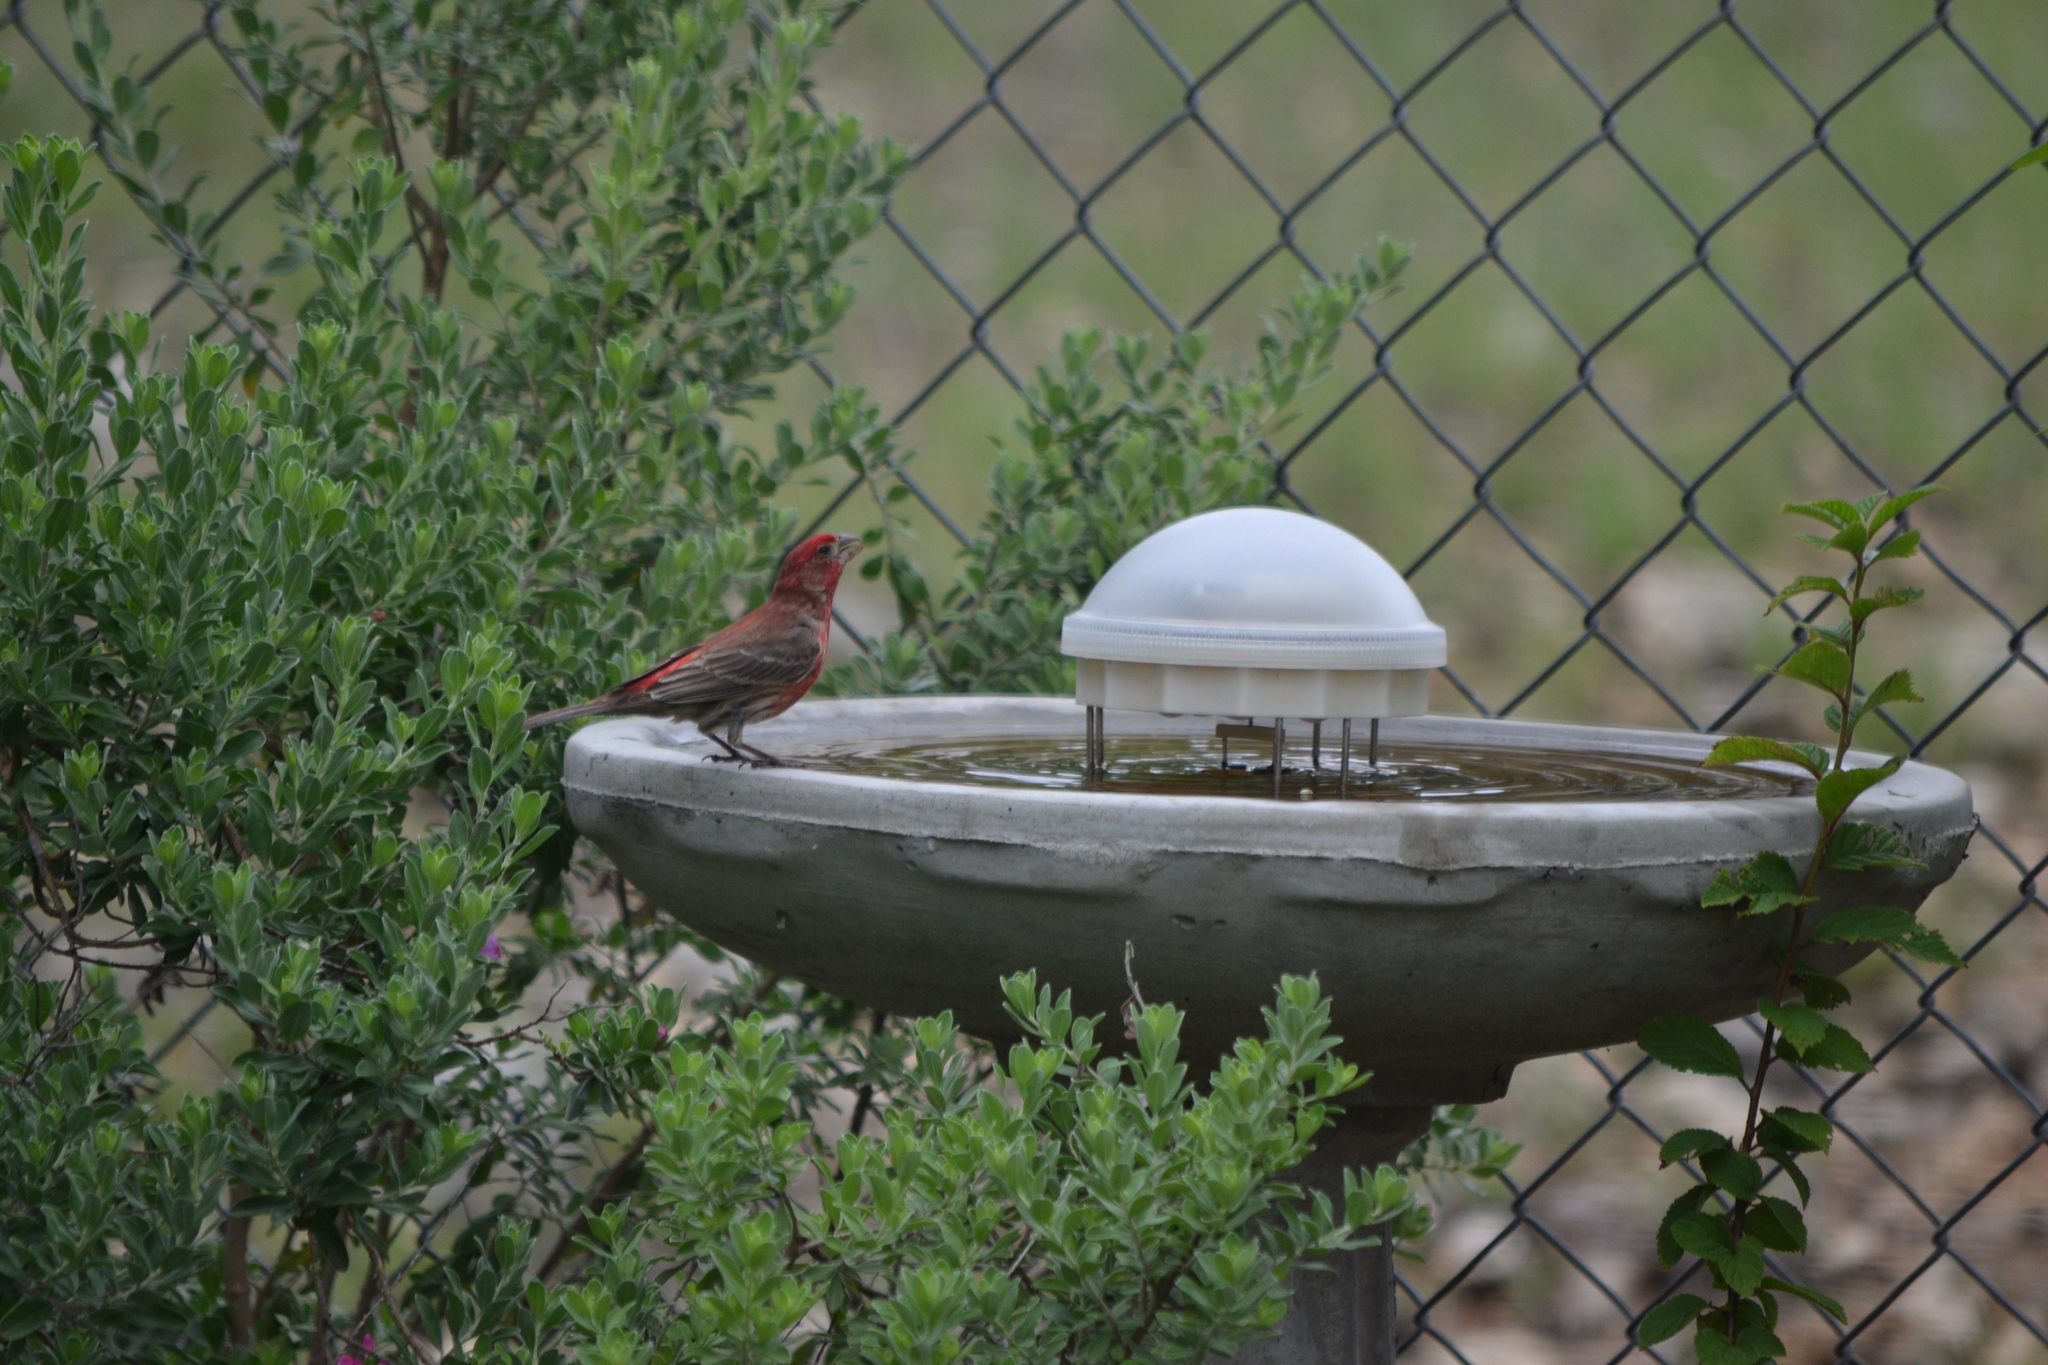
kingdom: Animalia
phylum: Chordata
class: Aves
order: Passeriformes
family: Fringillidae
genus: Haemorhous
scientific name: Haemorhous mexicanus
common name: House finch
